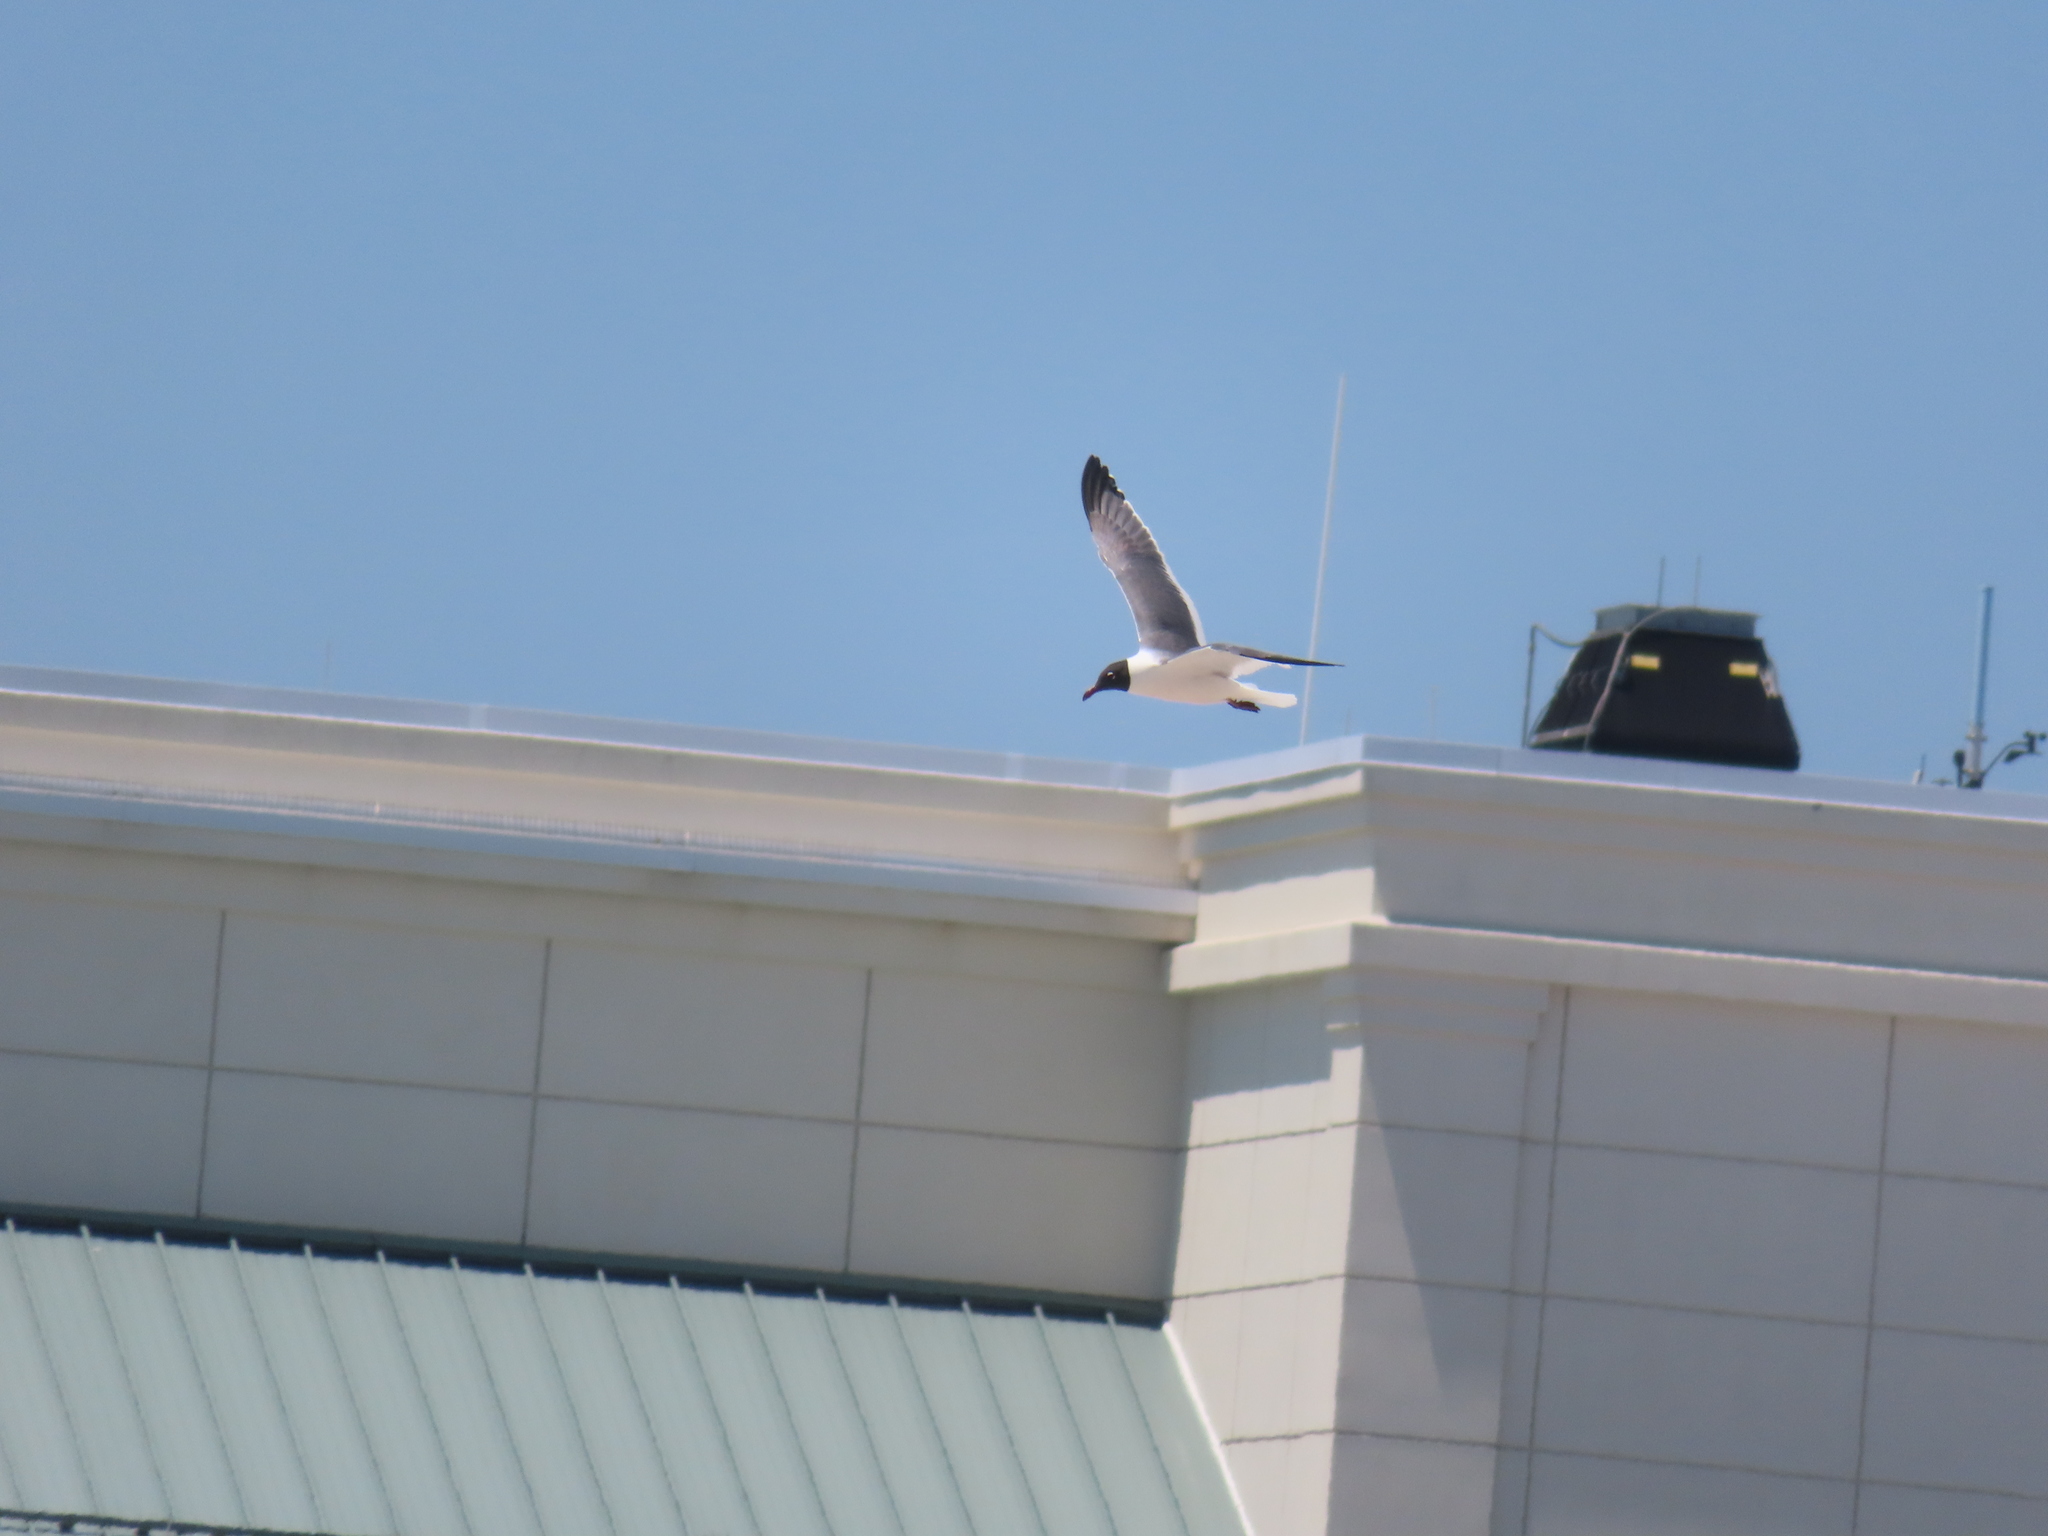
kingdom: Animalia
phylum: Chordata
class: Aves
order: Charadriiformes
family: Laridae
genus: Leucophaeus
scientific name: Leucophaeus atricilla
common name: Laughing gull
